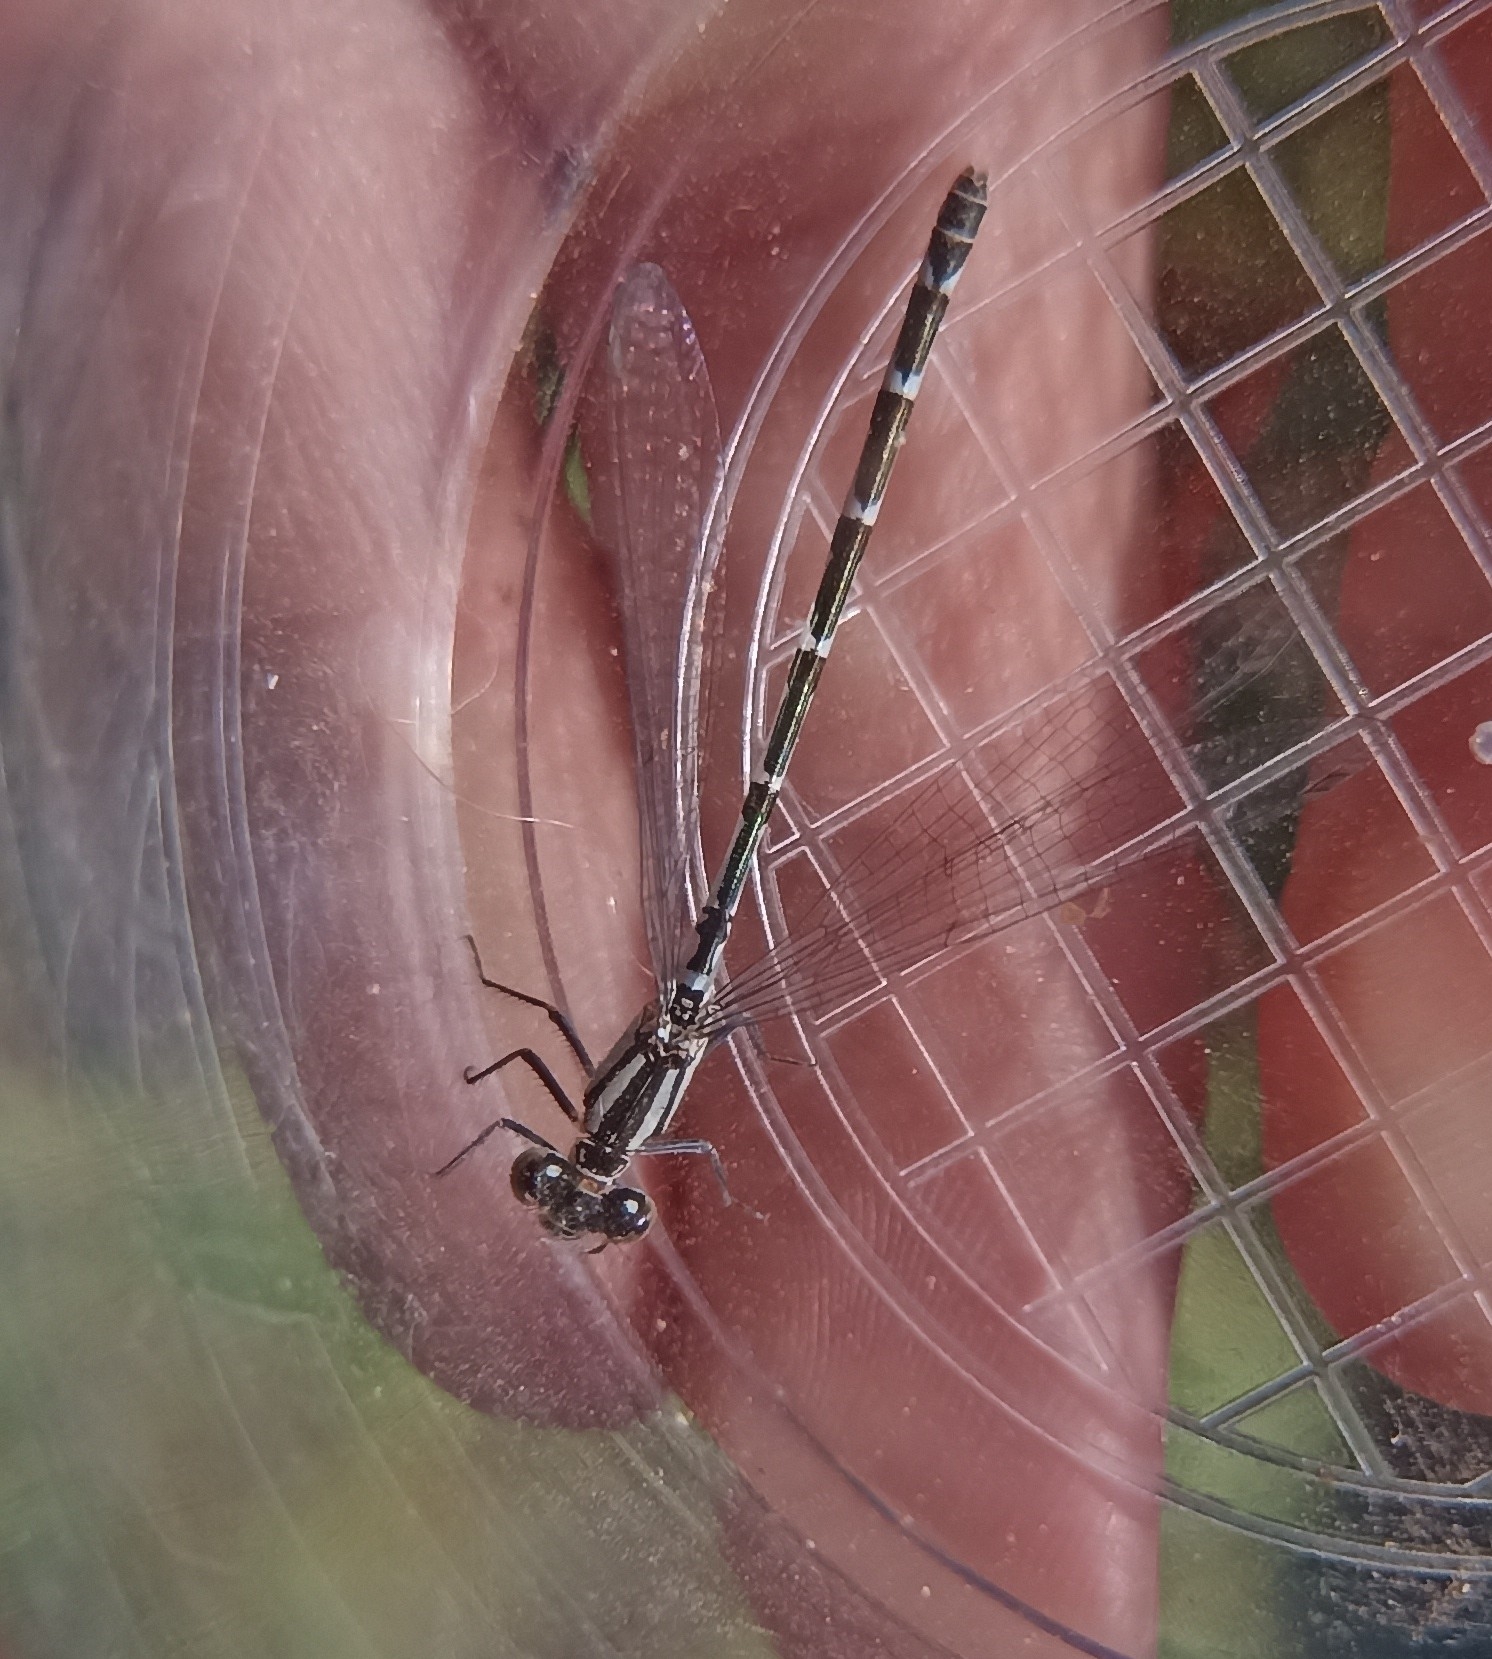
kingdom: Animalia
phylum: Arthropoda
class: Insecta
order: Odonata
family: Coenagrionidae
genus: Enallagma
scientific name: Enallagma cyathigerum
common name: Common blue damselfly
